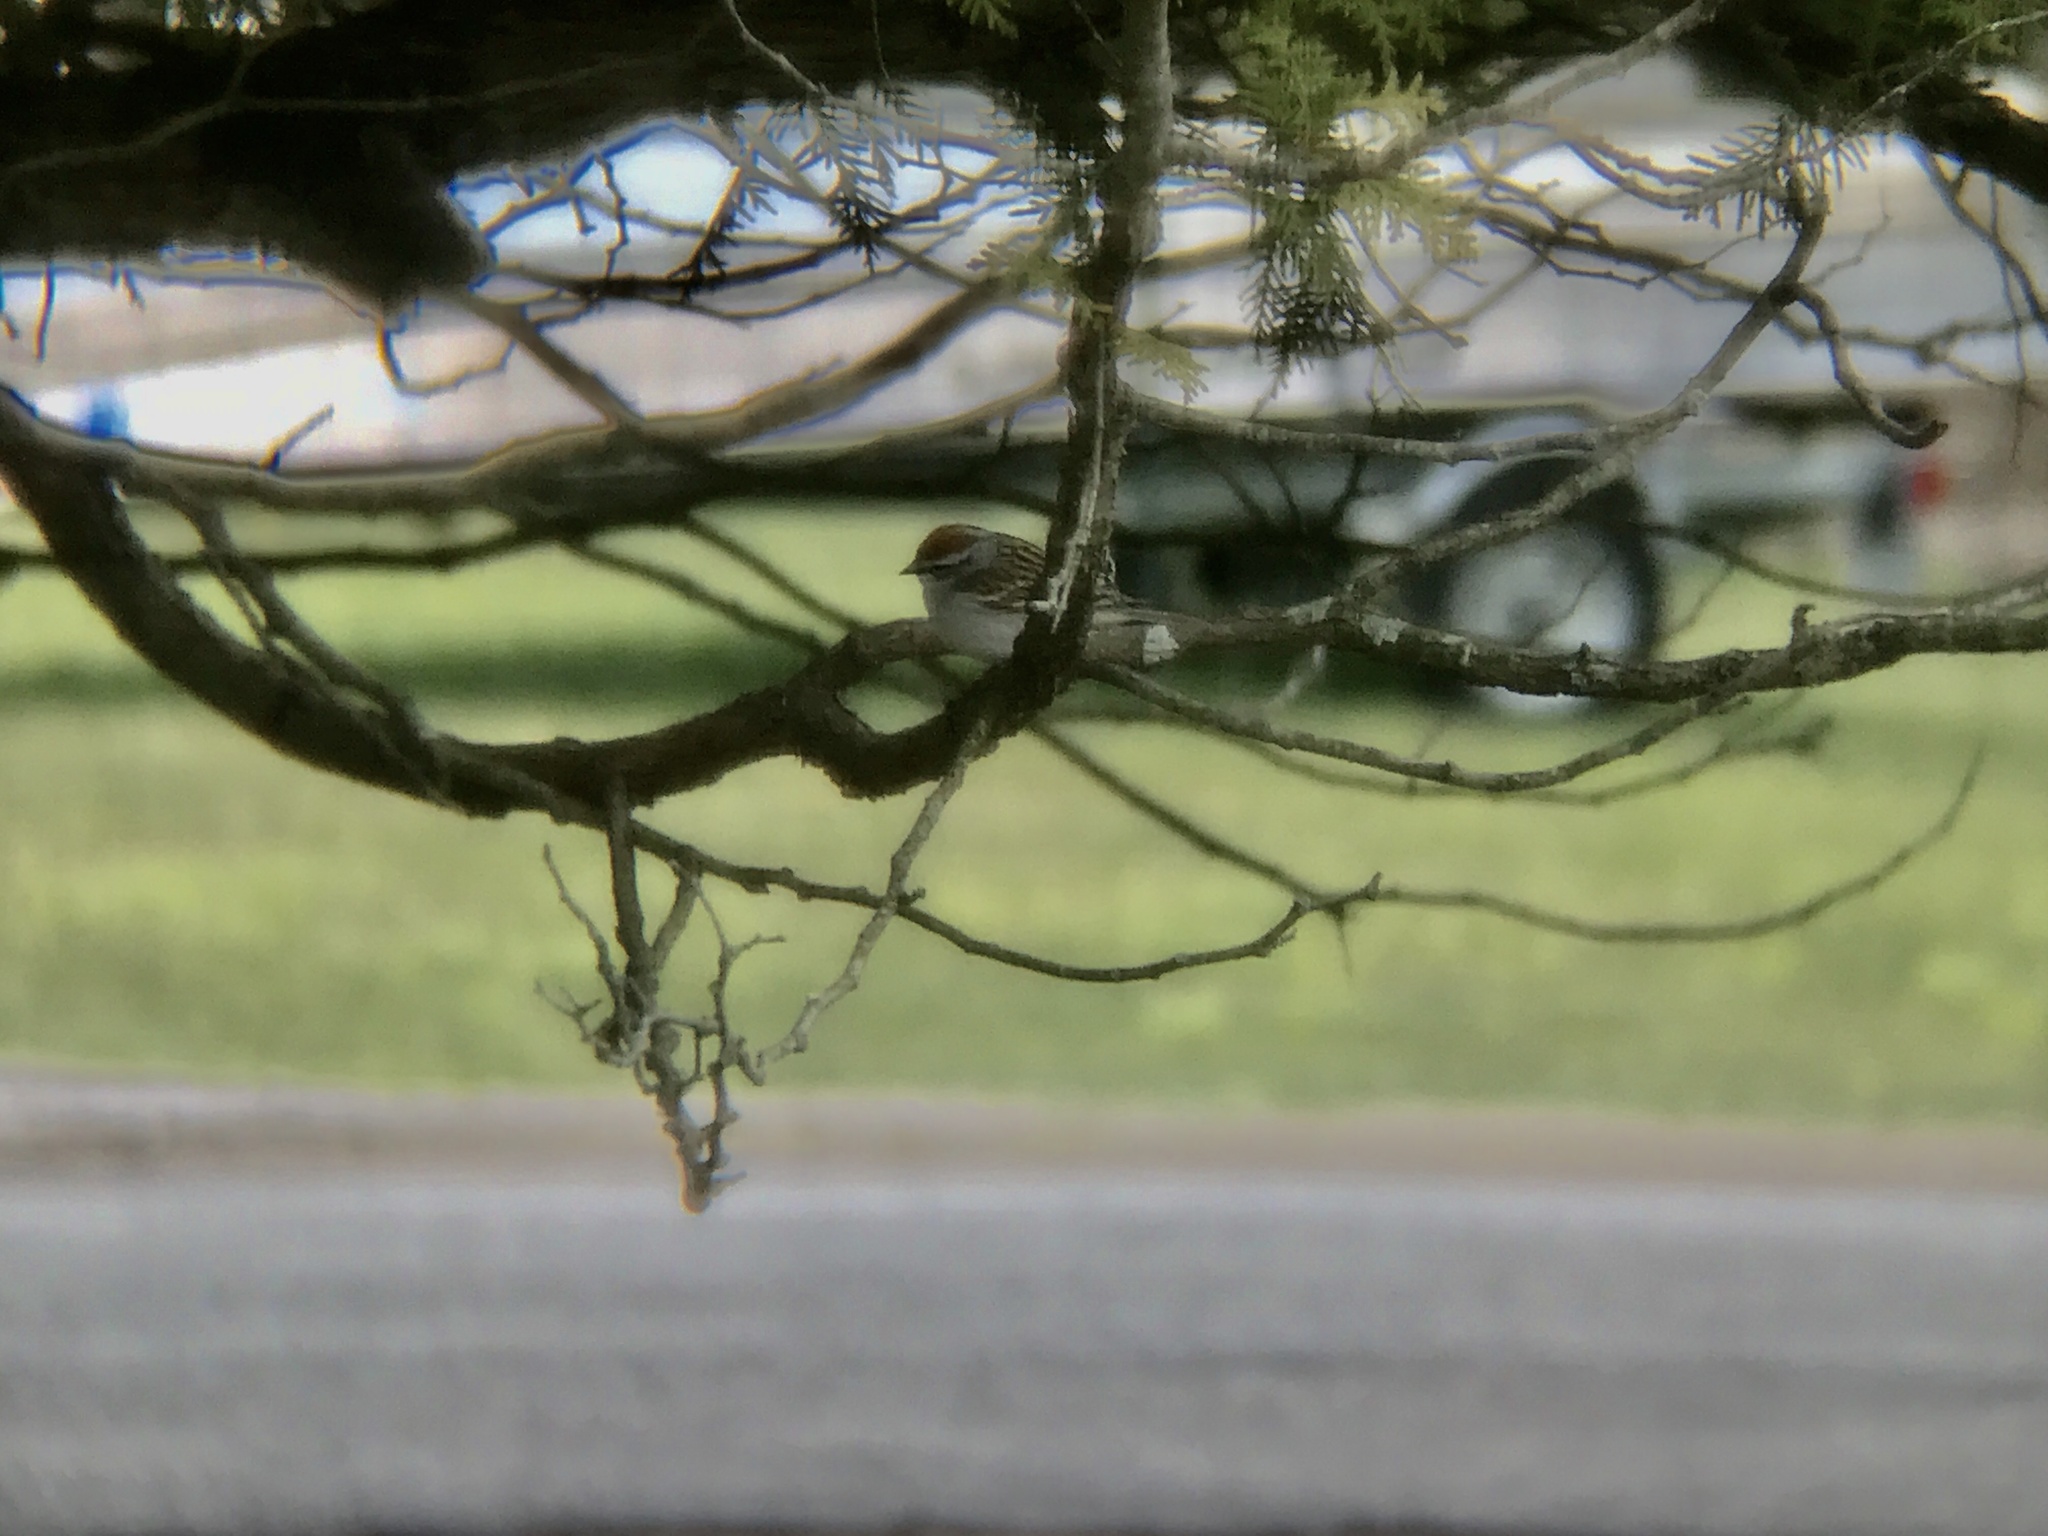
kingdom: Animalia
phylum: Chordata
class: Aves
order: Passeriformes
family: Passerellidae
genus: Spizella
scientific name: Spizella passerina
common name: Chipping sparrow
